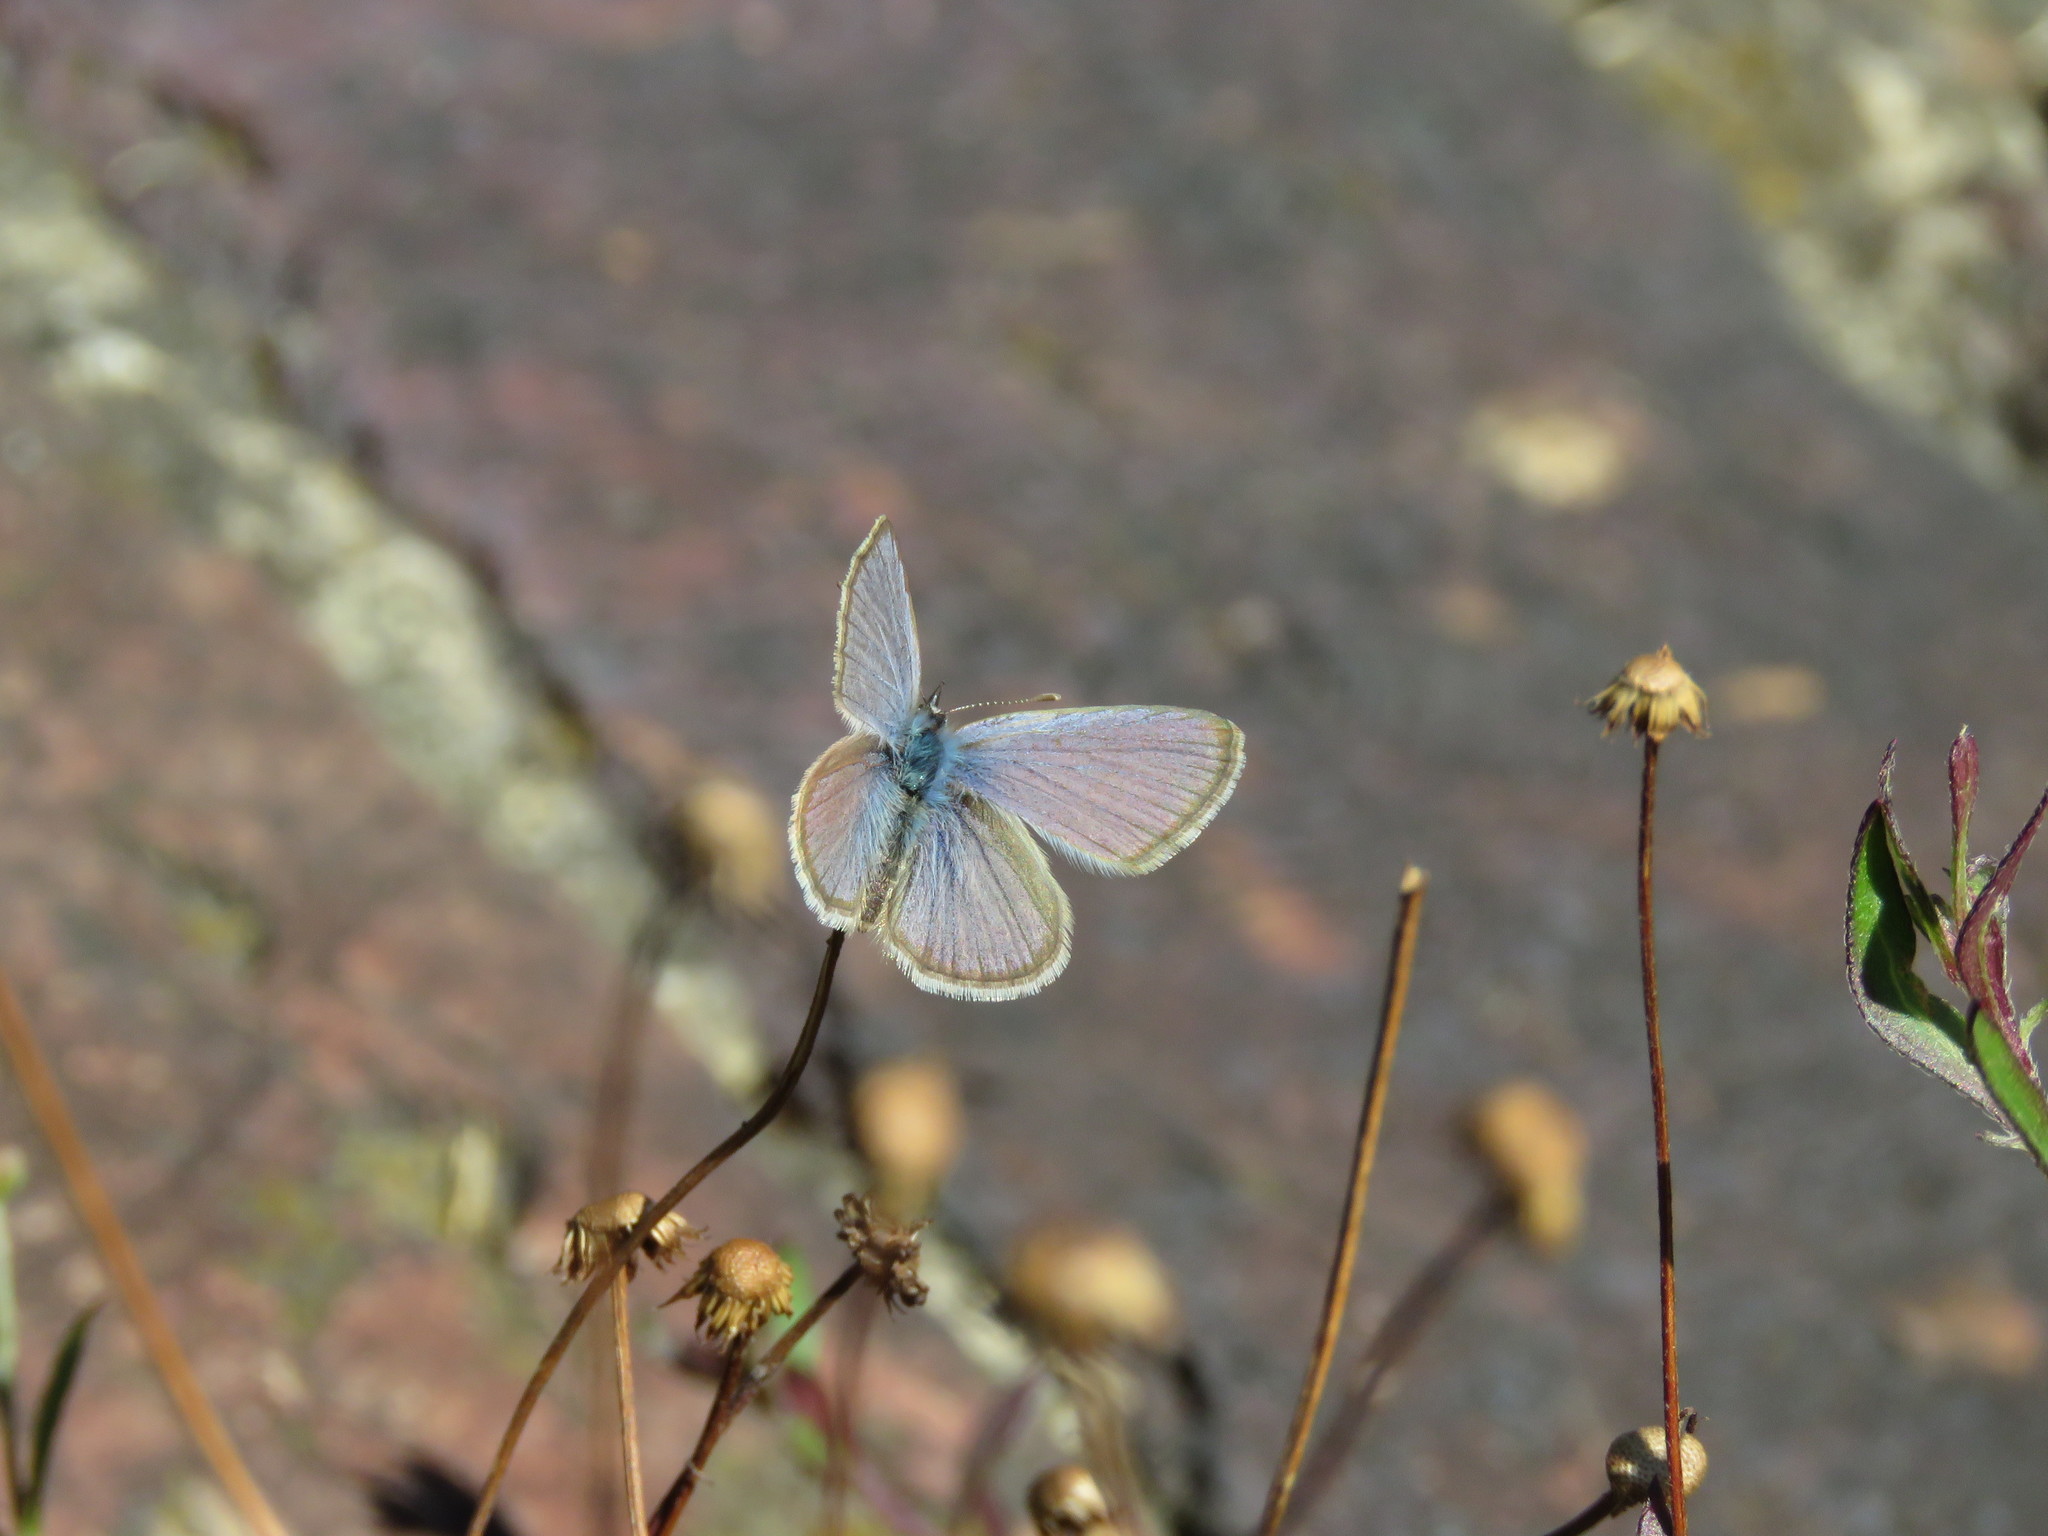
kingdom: Animalia
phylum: Arthropoda
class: Insecta
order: Lepidoptera
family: Lycaenidae
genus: Hemiargus
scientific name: Hemiargus hanno
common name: Common blue
